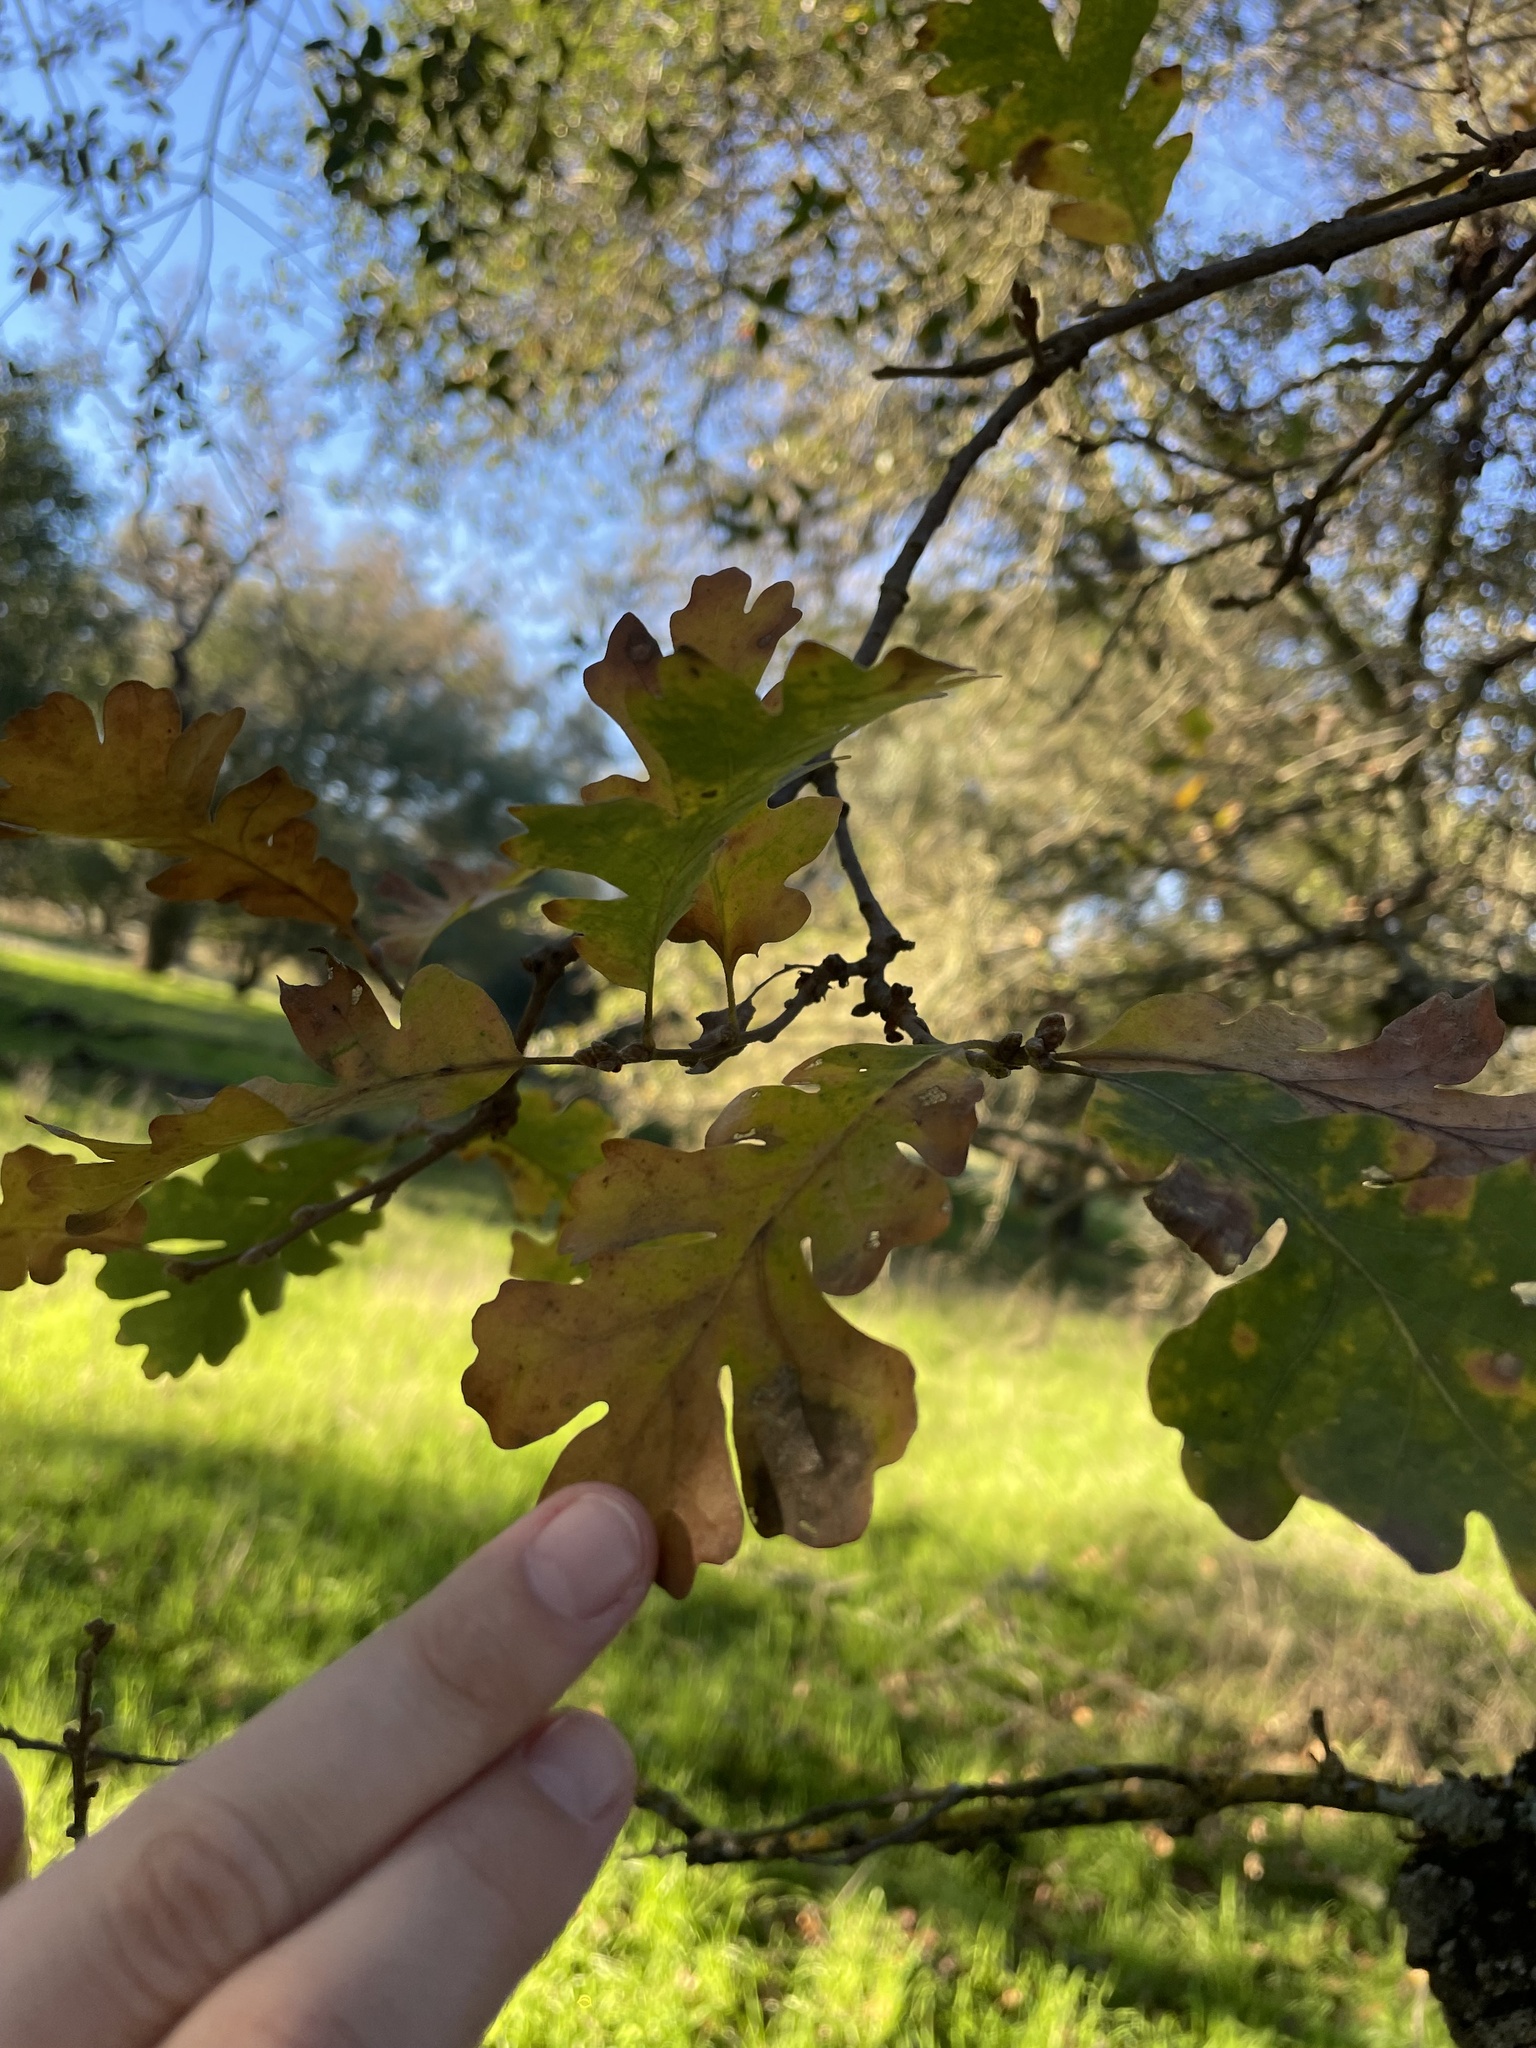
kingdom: Plantae
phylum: Tracheophyta
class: Magnoliopsida
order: Fagales
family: Fagaceae
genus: Quercus
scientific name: Quercus lobata
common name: Valley oak
